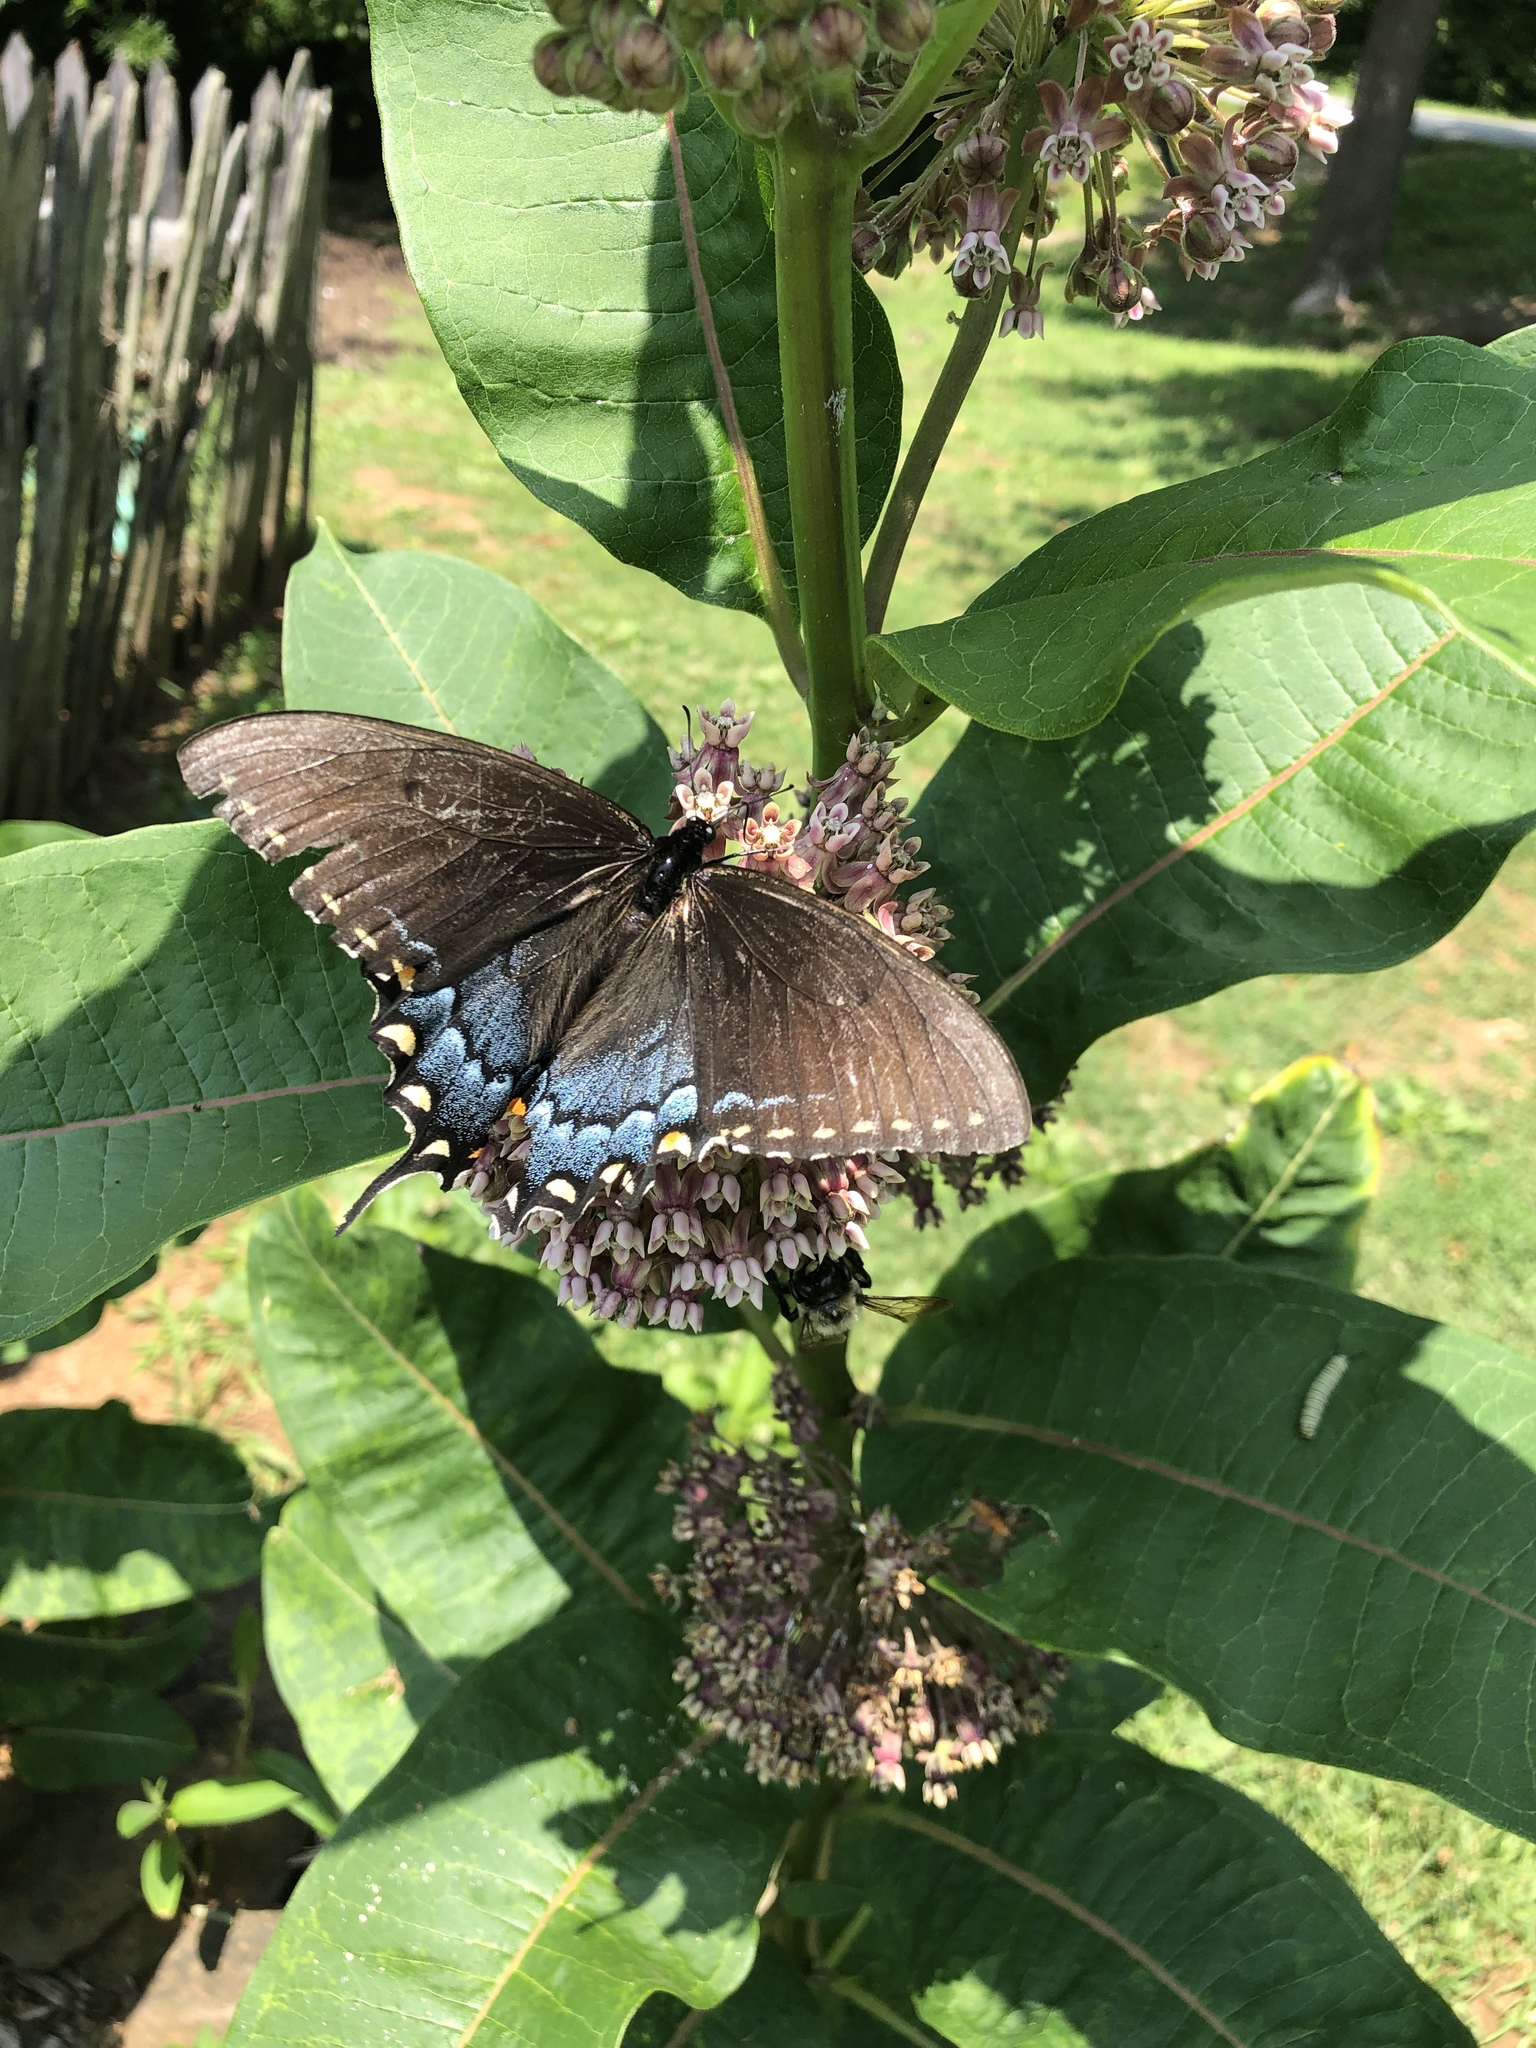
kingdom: Animalia
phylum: Arthropoda
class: Insecta
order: Lepidoptera
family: Papilionidae
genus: Papilio
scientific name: Papilio glaucus
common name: Tiger swallowtail
